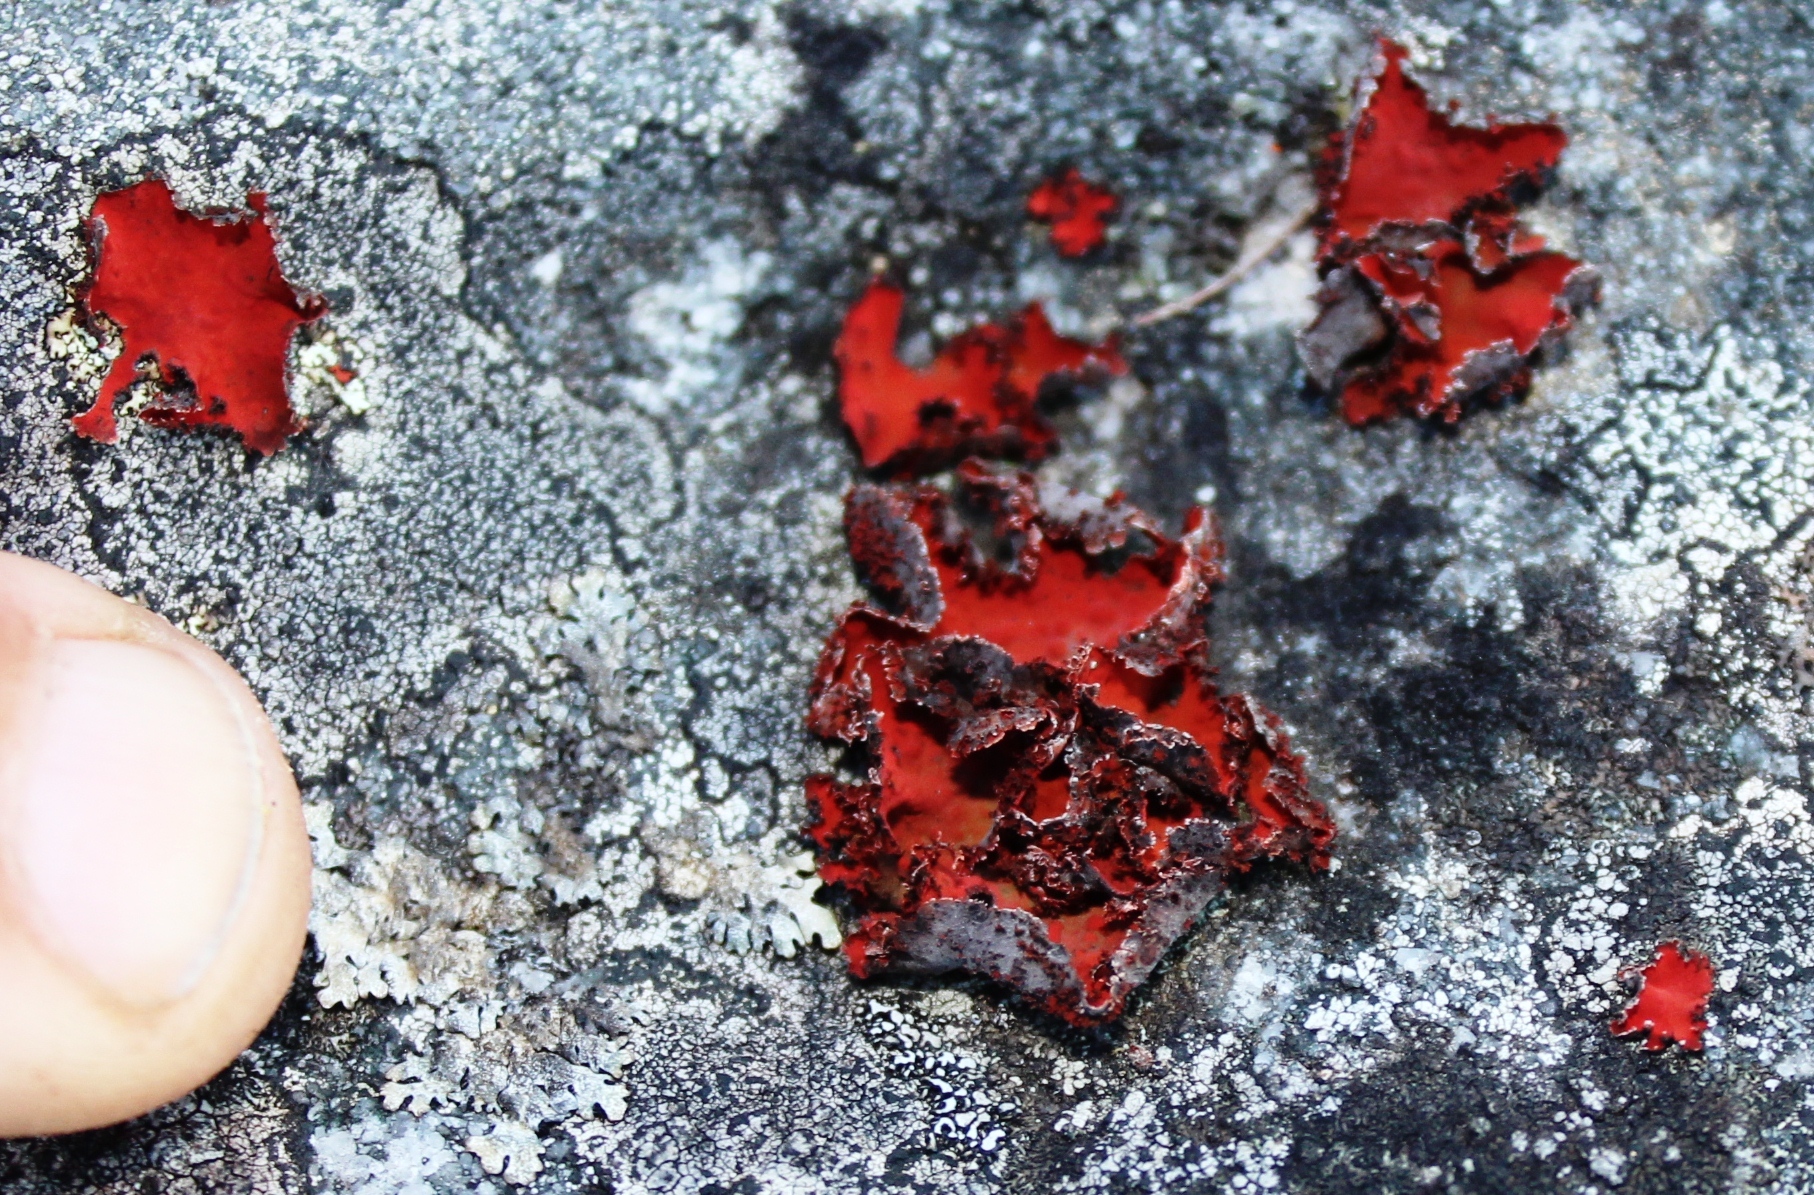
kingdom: Fungi
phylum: Ascomycota
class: Lecanoromycetes
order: Umbilicariales
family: Umbilicariaceae
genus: Lasallia
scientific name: Lasallia rubiginosa
